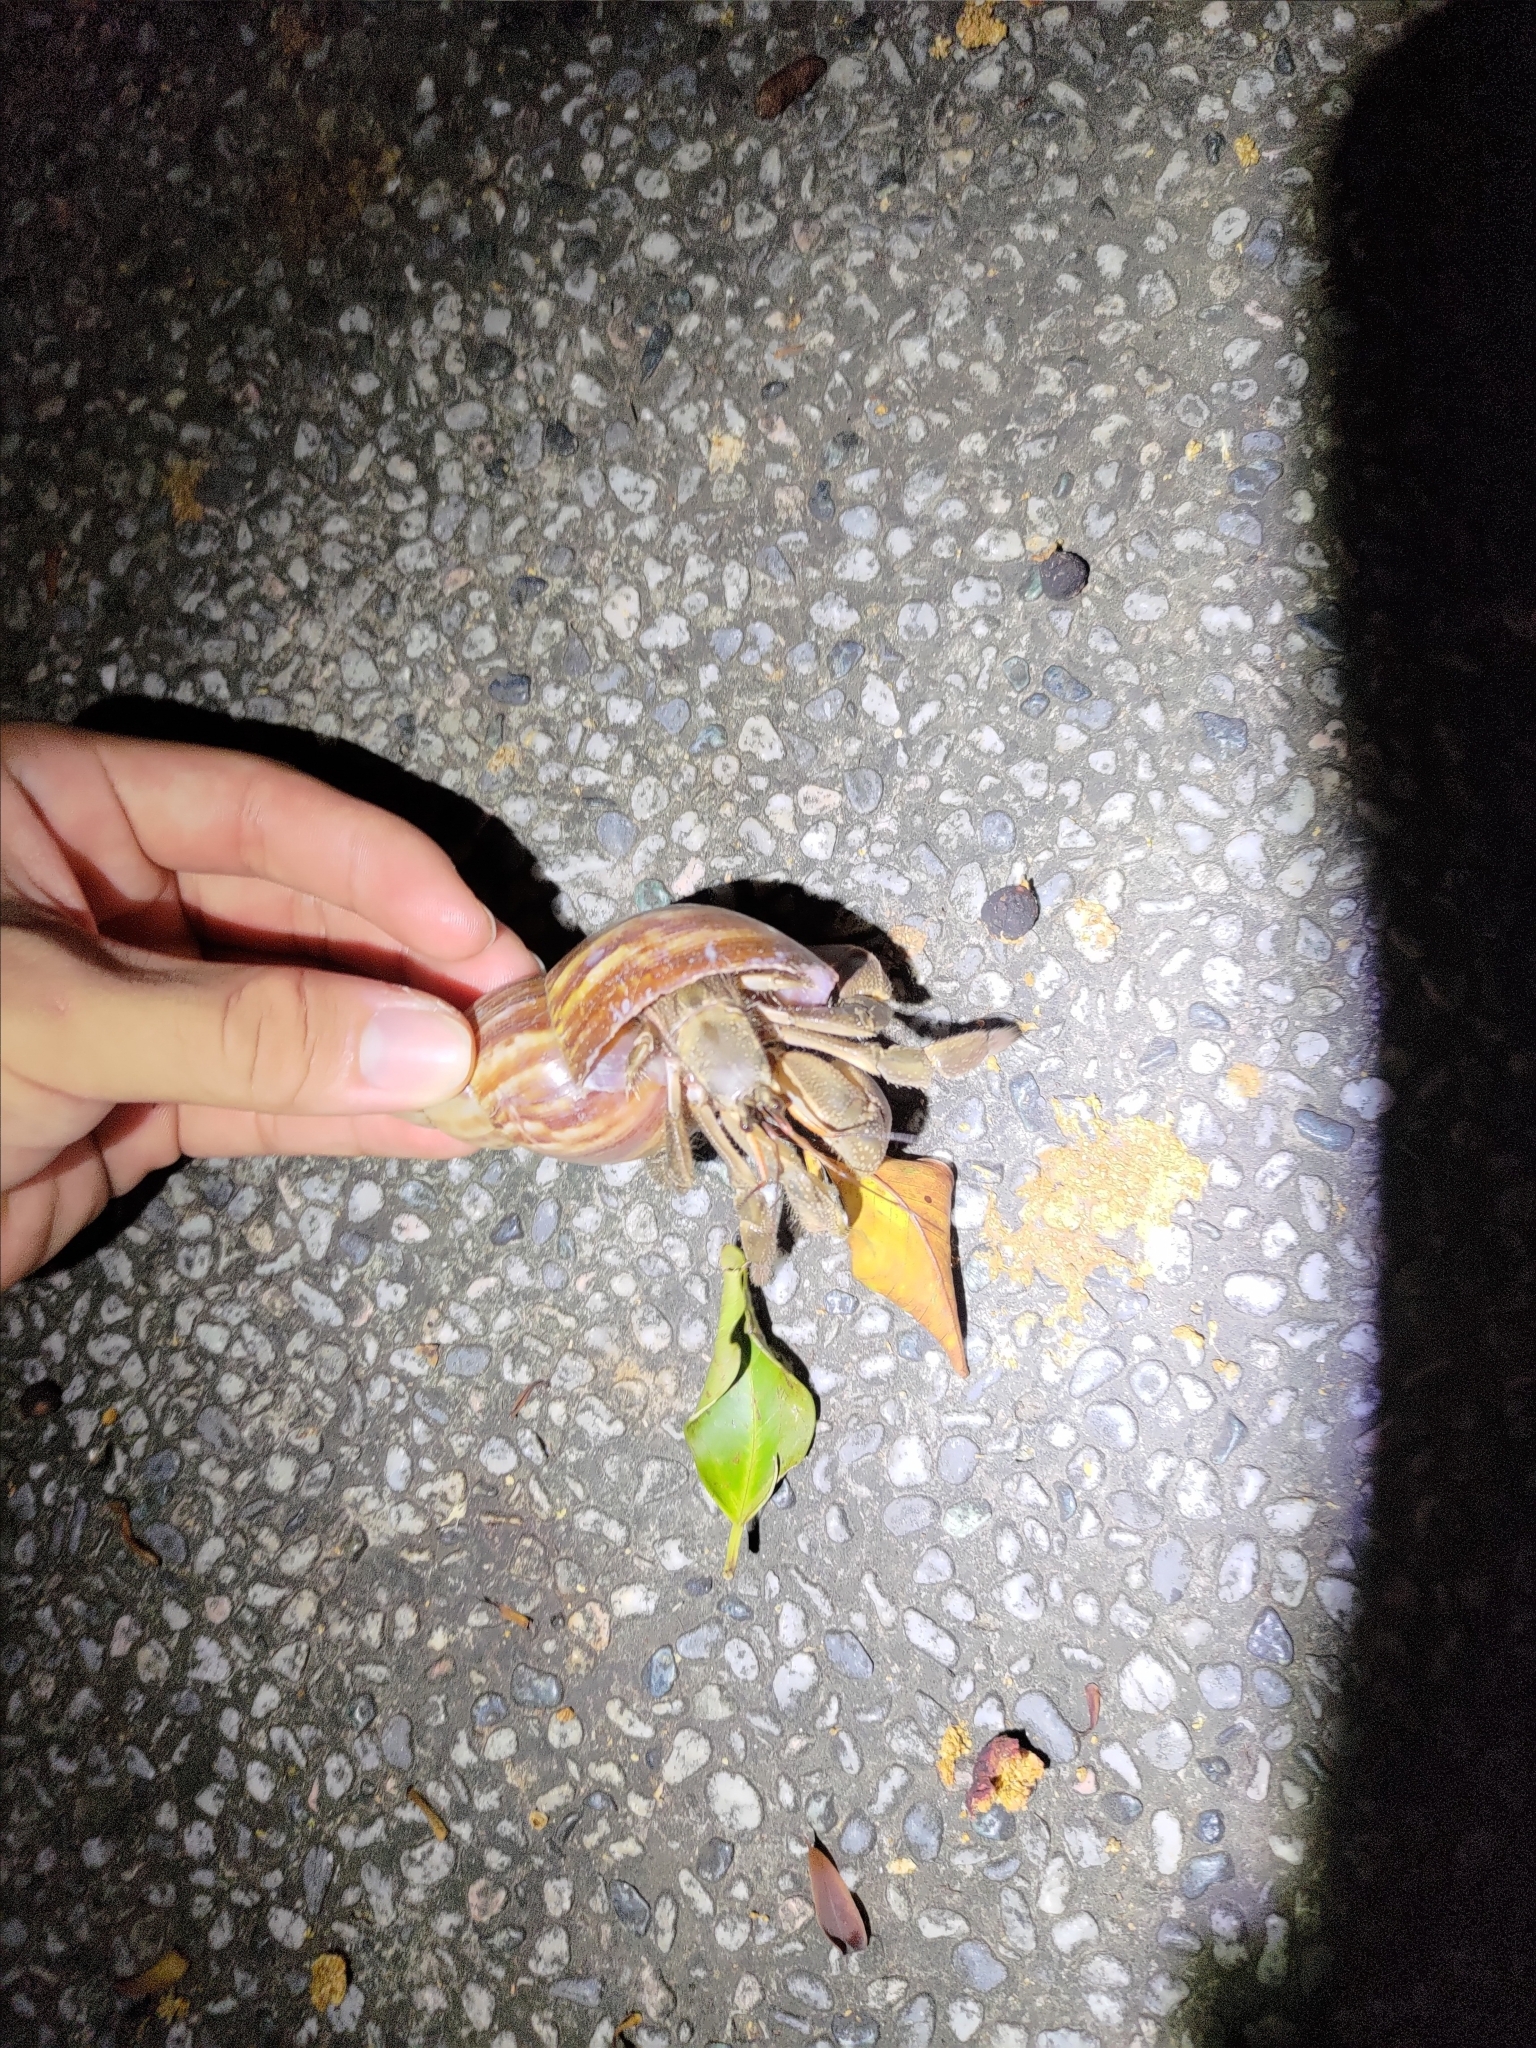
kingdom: Animalia
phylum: Arthropoda
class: Malacostraca
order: Decapoda
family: Coenobitidae
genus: Coenobita
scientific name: Coenobita cavipes
